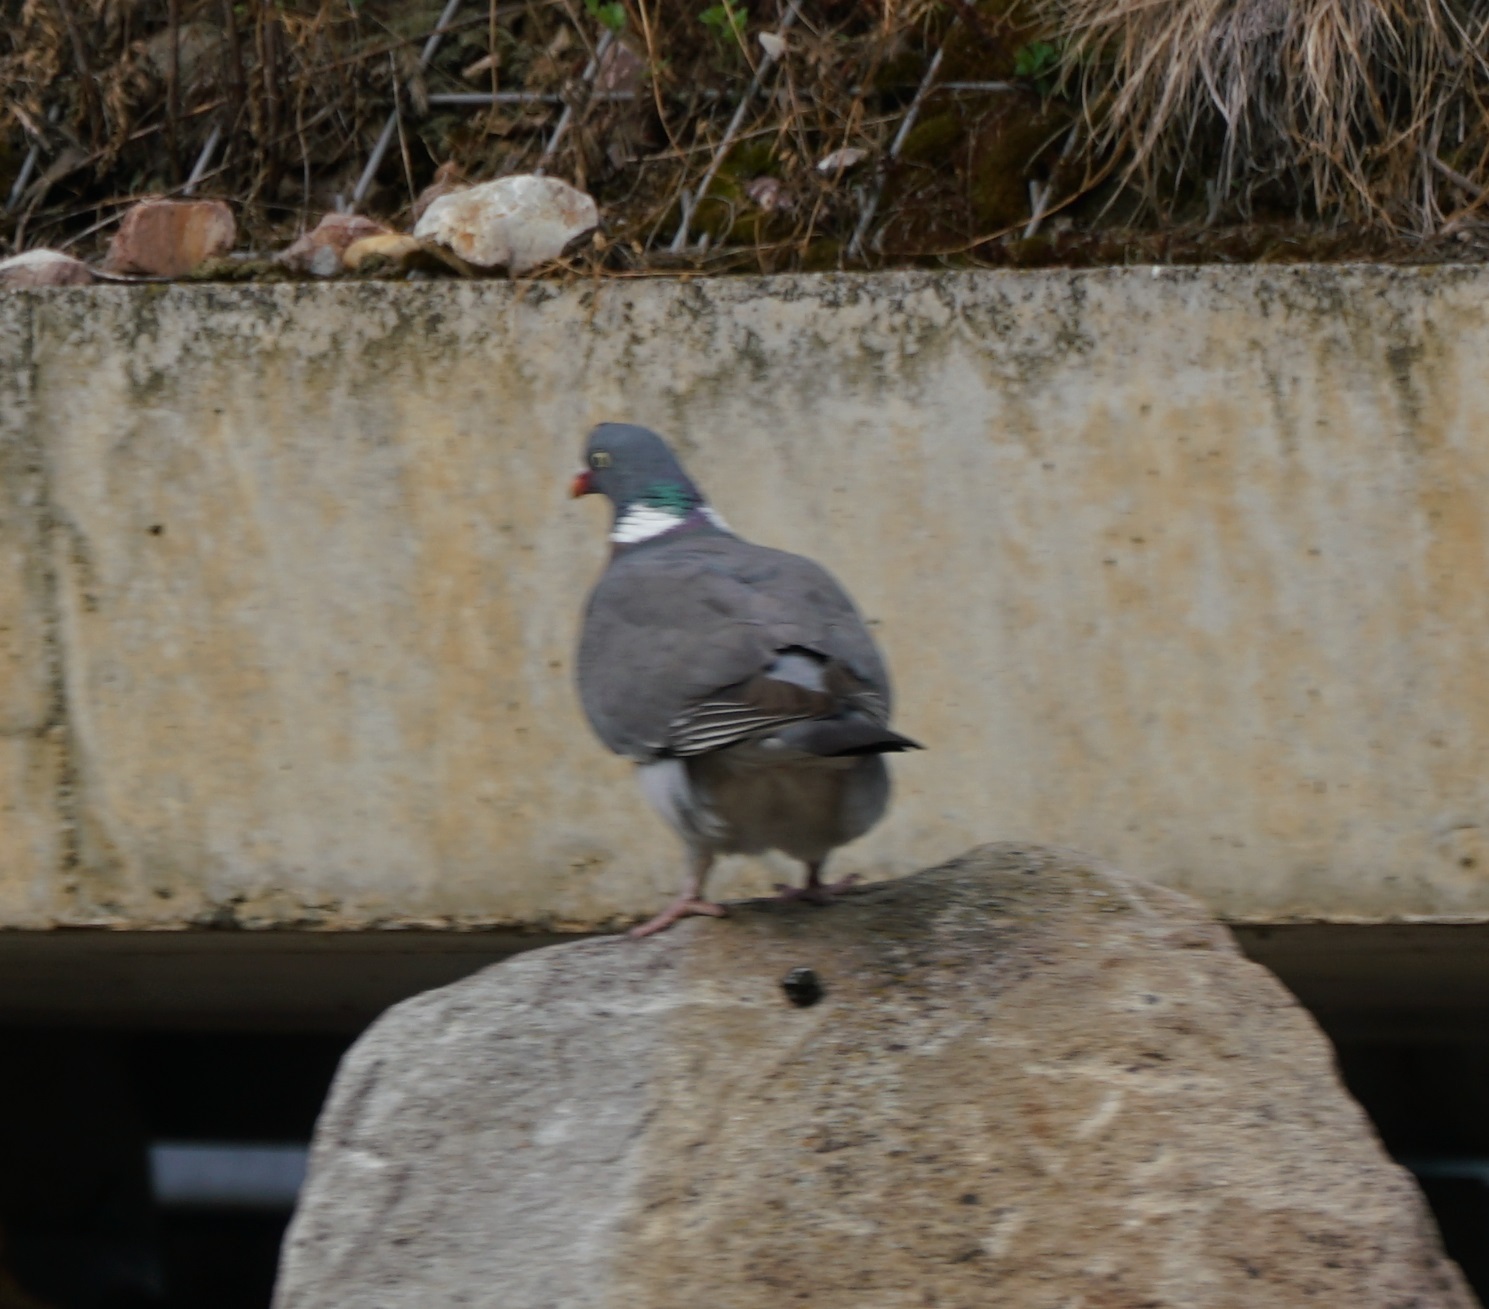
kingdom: Animalia
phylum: Chordata
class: Aves
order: Columbiformes
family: Columbidae
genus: Columba
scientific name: Columba palumbus
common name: Common wood pigeon
